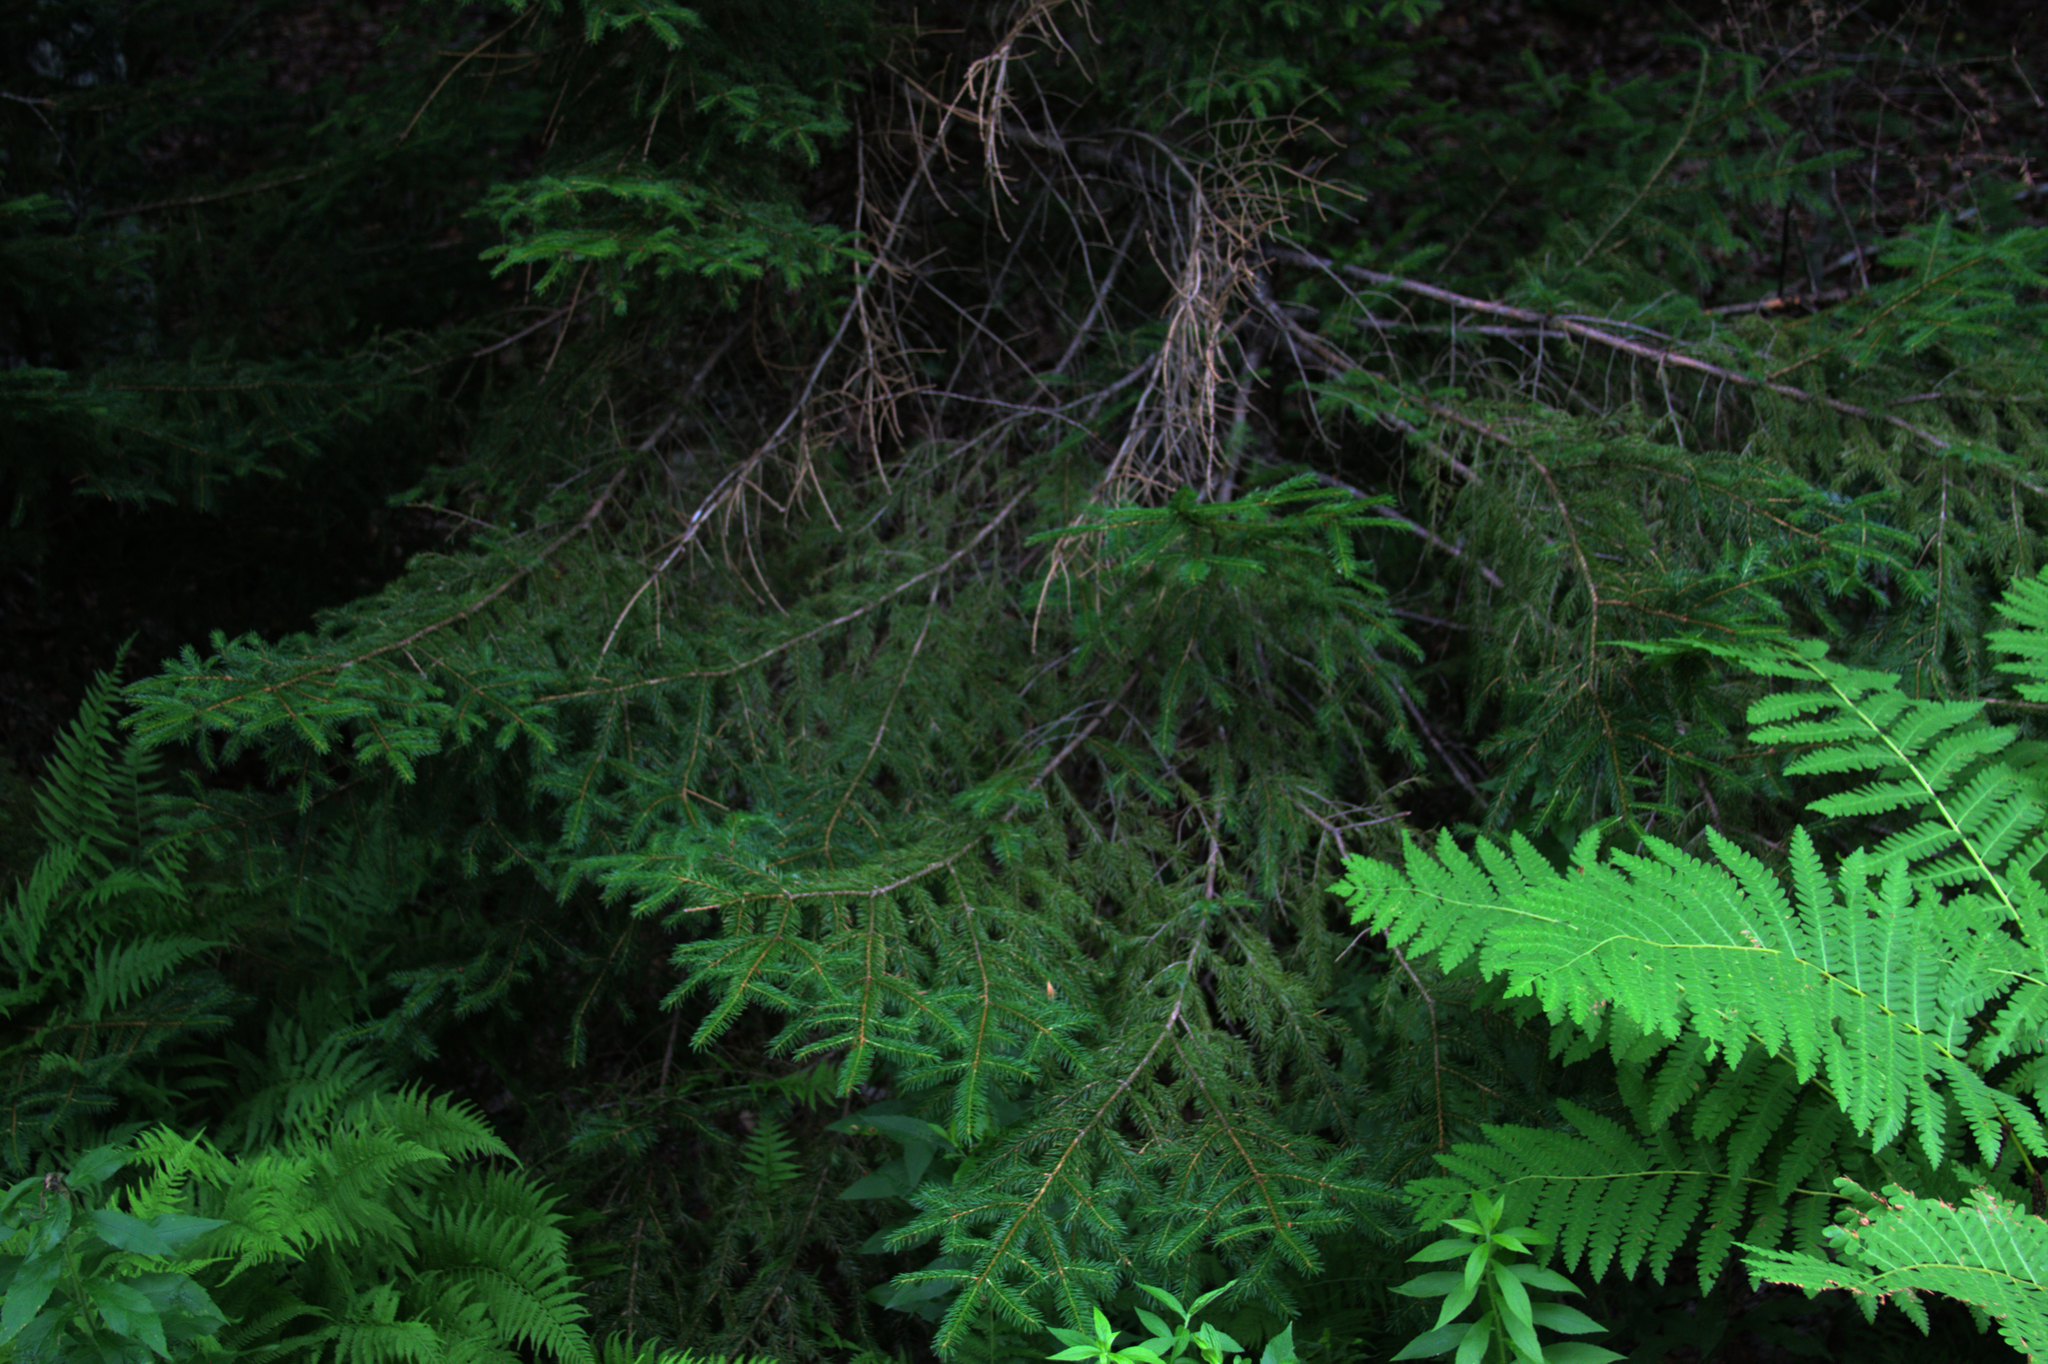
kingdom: Plantae
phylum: Tracheophyta
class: Polypodiopsida
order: Osmundales
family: Osmundaceae
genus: Claytosmunda
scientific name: Claytosmunda claytoniana
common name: Clayton's fern
